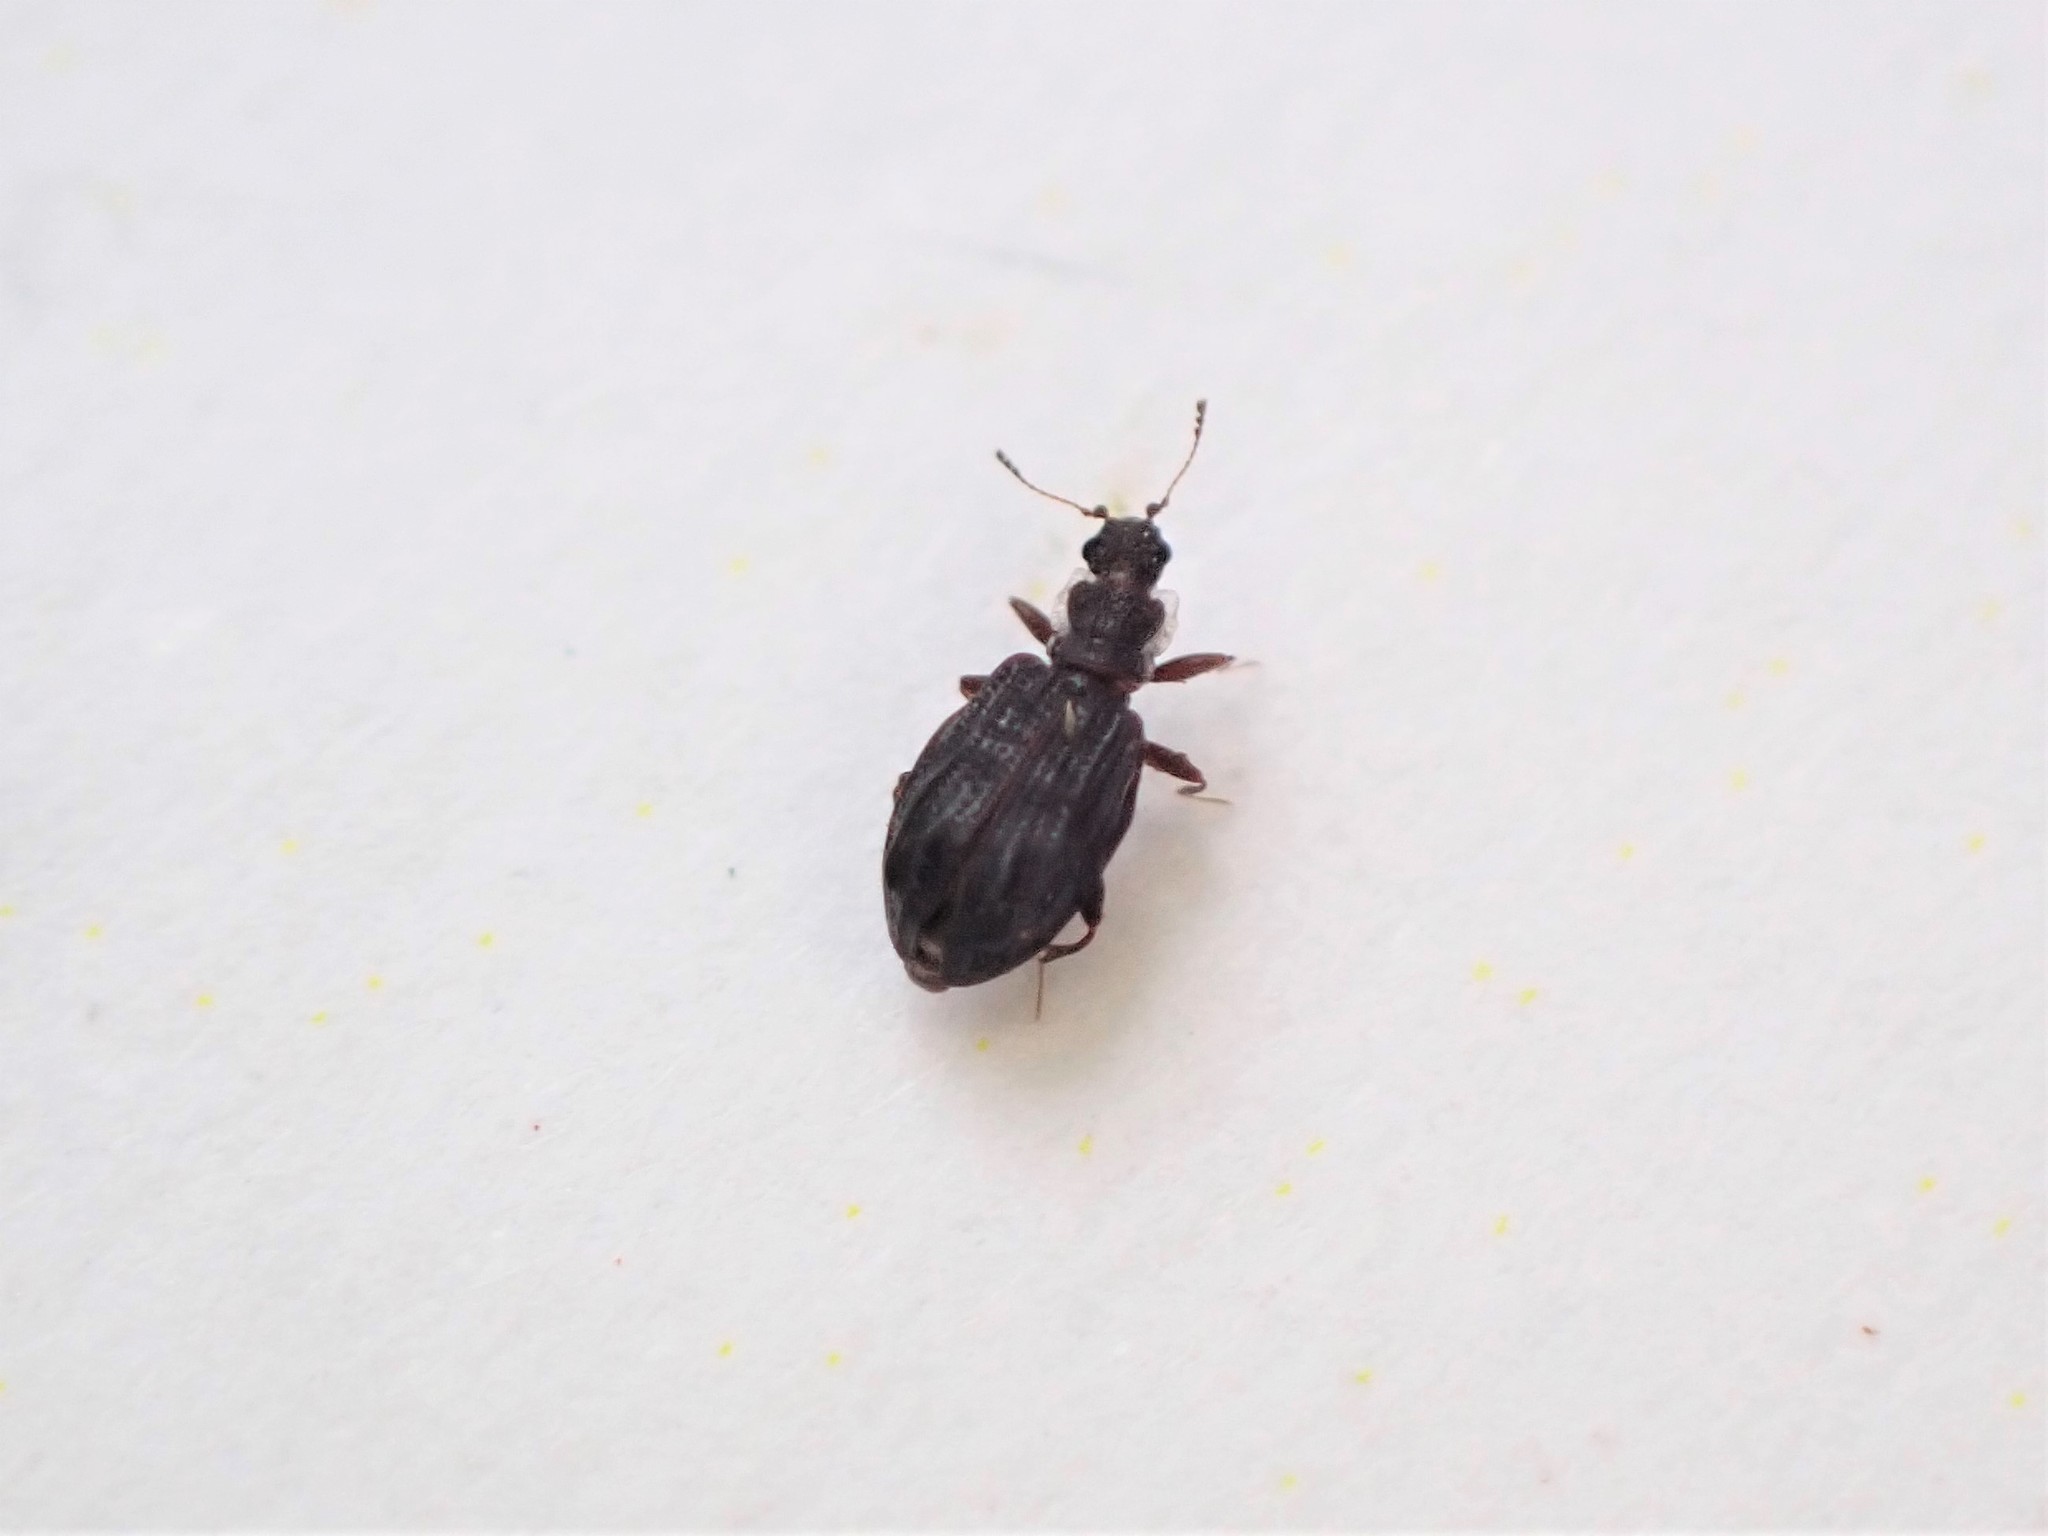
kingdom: Animalia
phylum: Arthropoda
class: Insecta
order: Coleoptera
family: Latridiidae
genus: Cartodere
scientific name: Cartodere nodifer
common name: Humpbacked minute scavenger beetle
